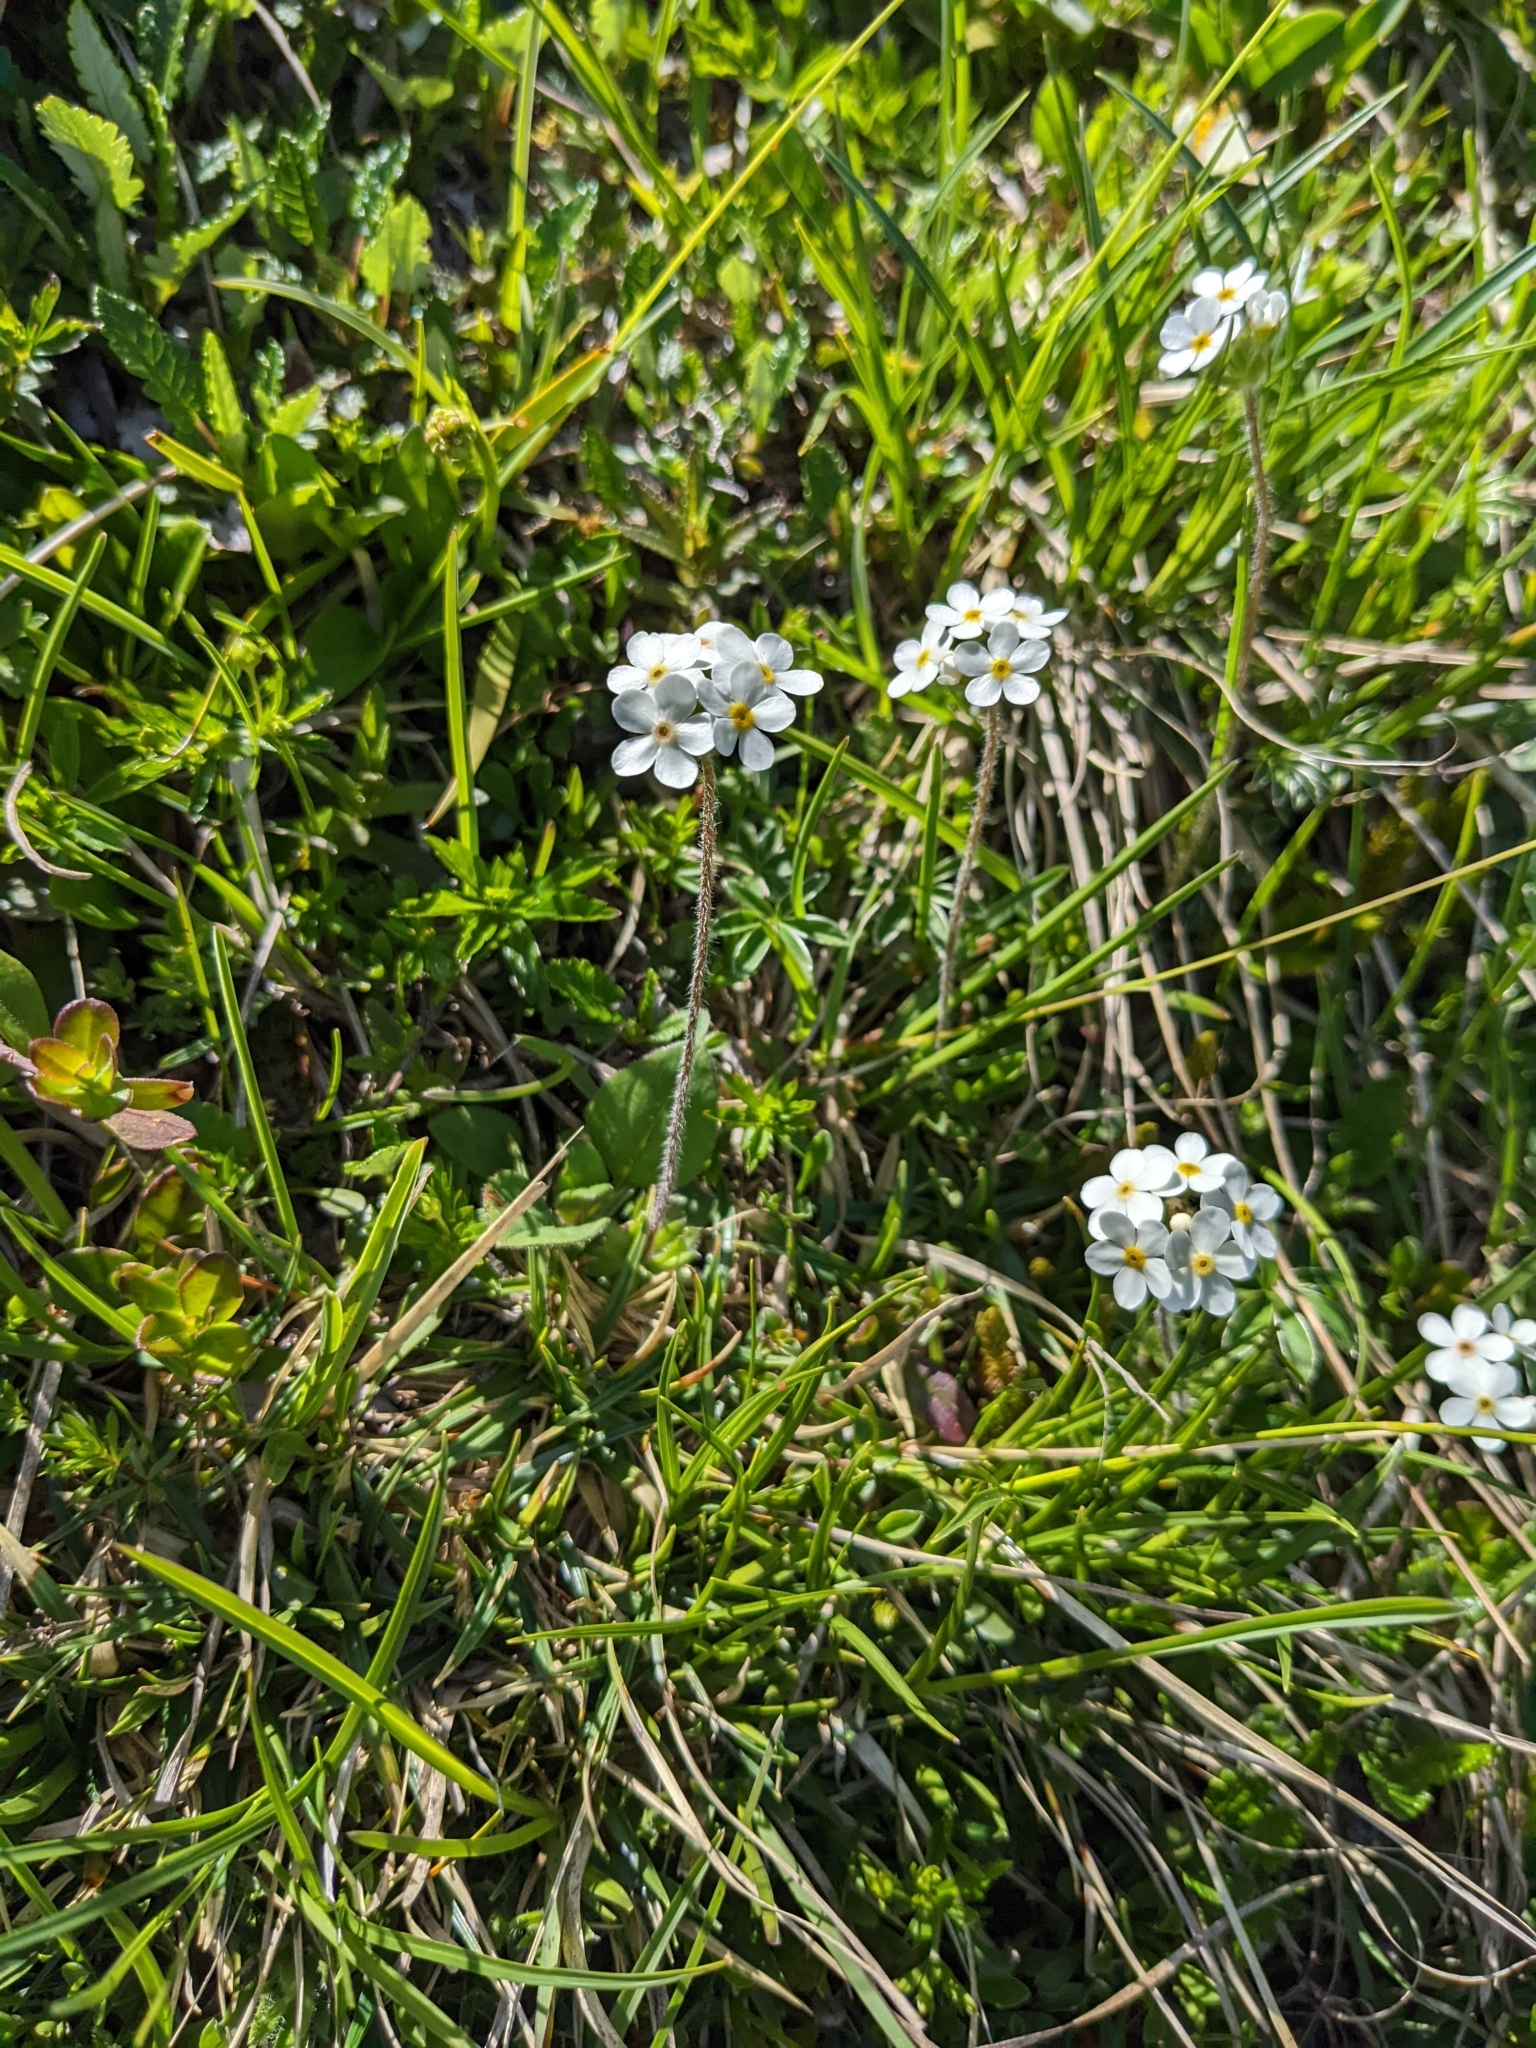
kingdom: Plantae
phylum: Tracheophyta
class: Magnoliopsida
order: Ericales
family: Primulaceae
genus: Androsace
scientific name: Androsace chamaejasme
